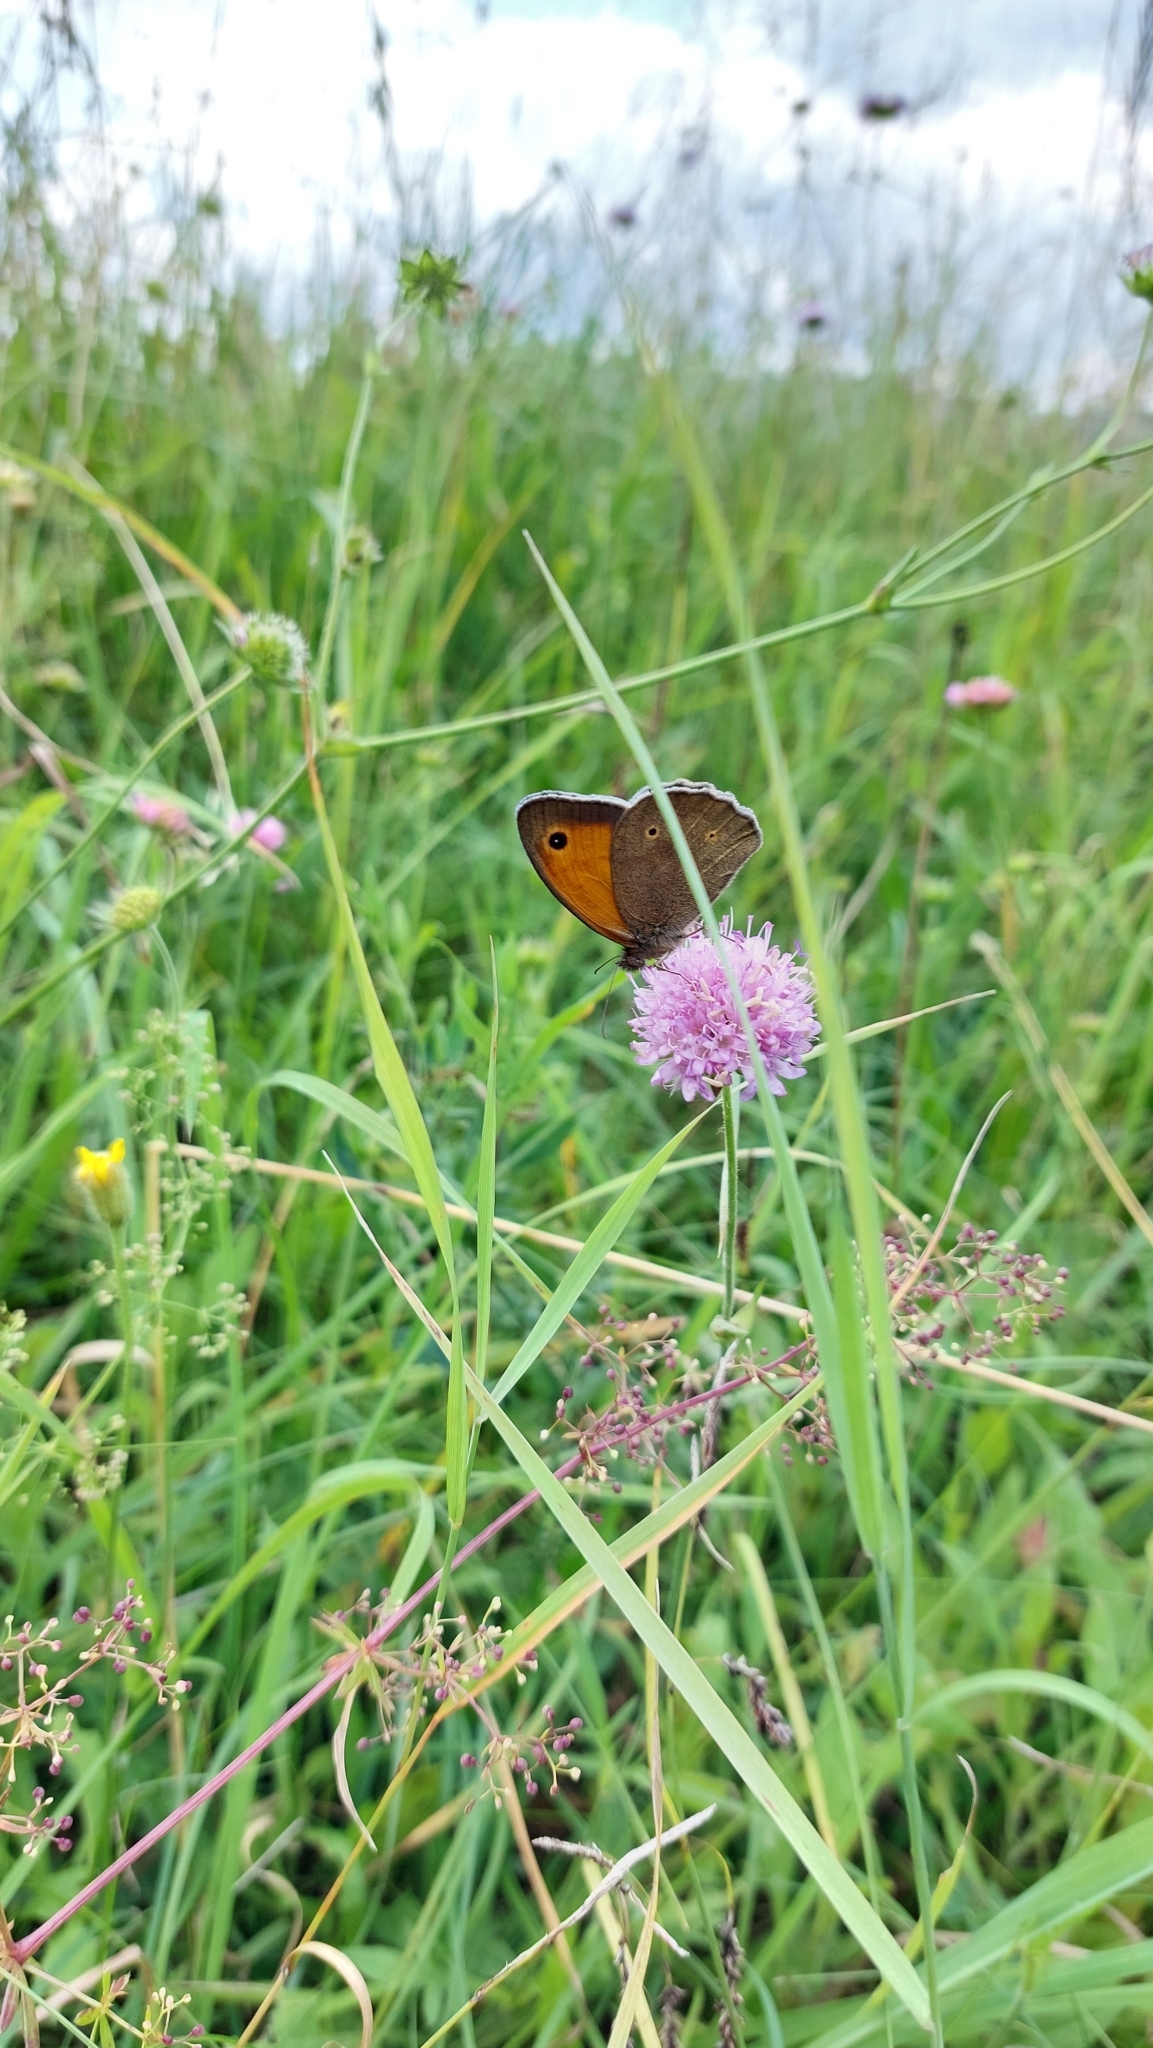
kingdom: Animalia
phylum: Arthropoda
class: Insecta
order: Lepidoptera
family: Nymphalidae
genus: Maniola
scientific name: Maniola jurtina
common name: Meadow brown
